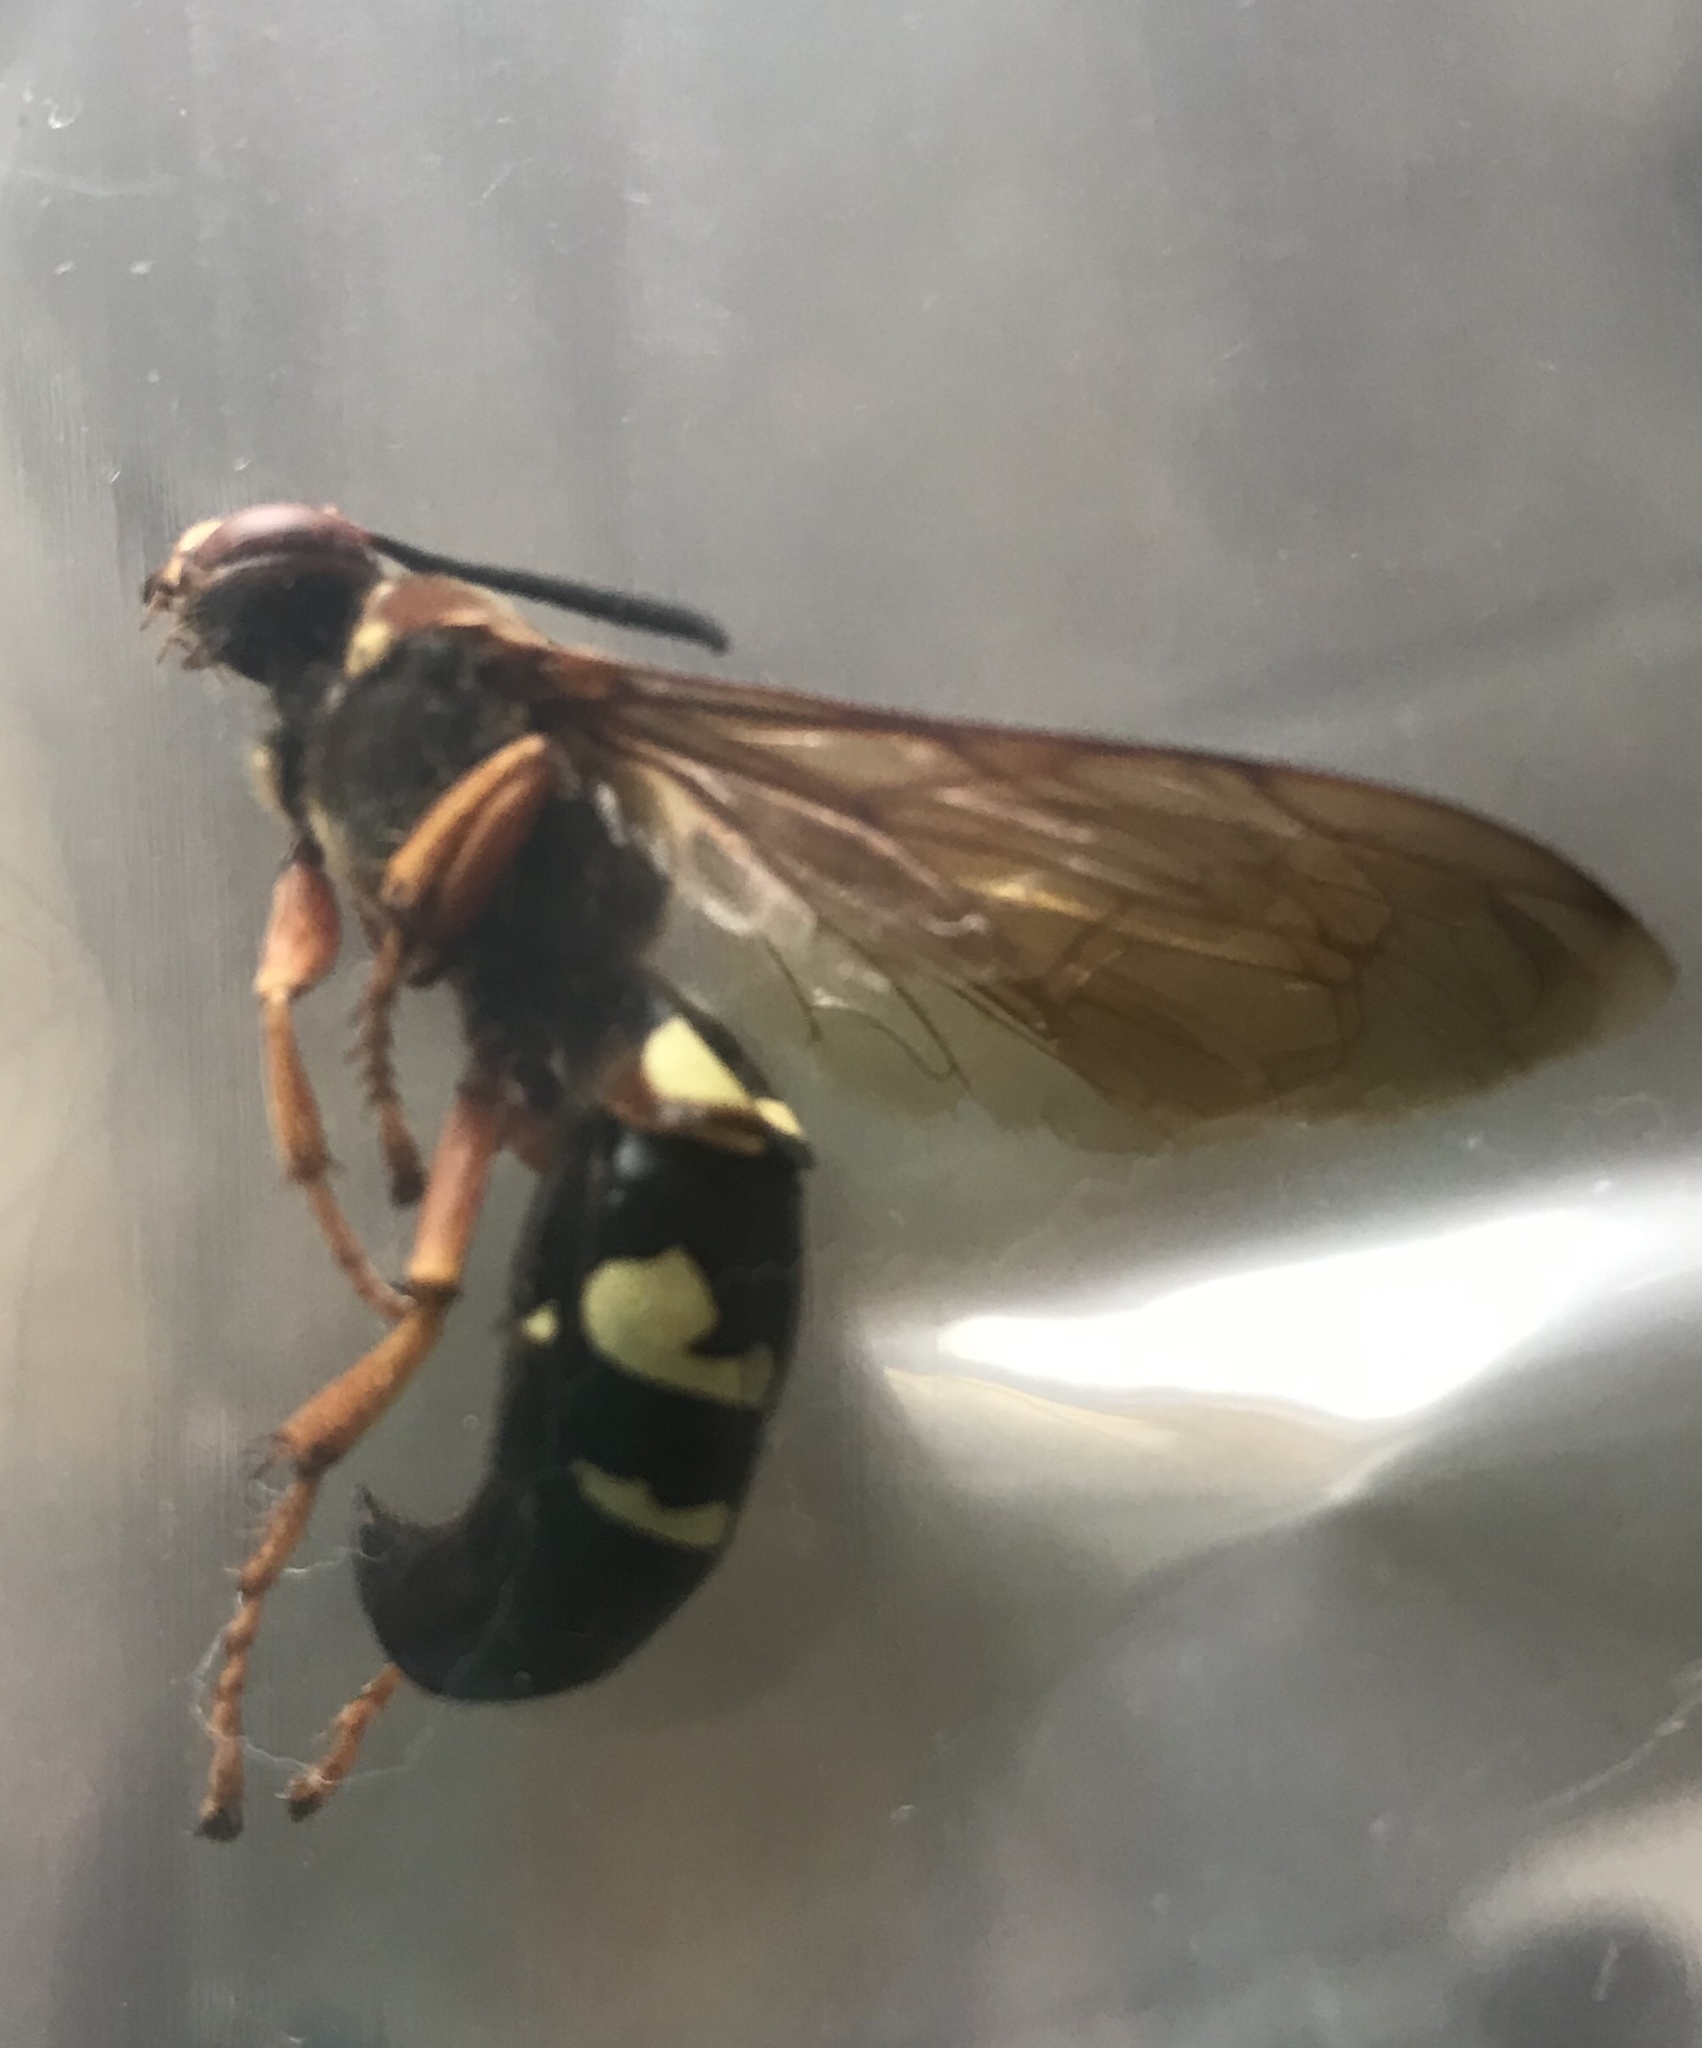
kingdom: Animalia
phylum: Arthropoda
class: Insecta
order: Hymenoptera
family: Crabronidae
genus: Sphecius
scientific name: Sphecius speciosus
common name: Cicada killer
